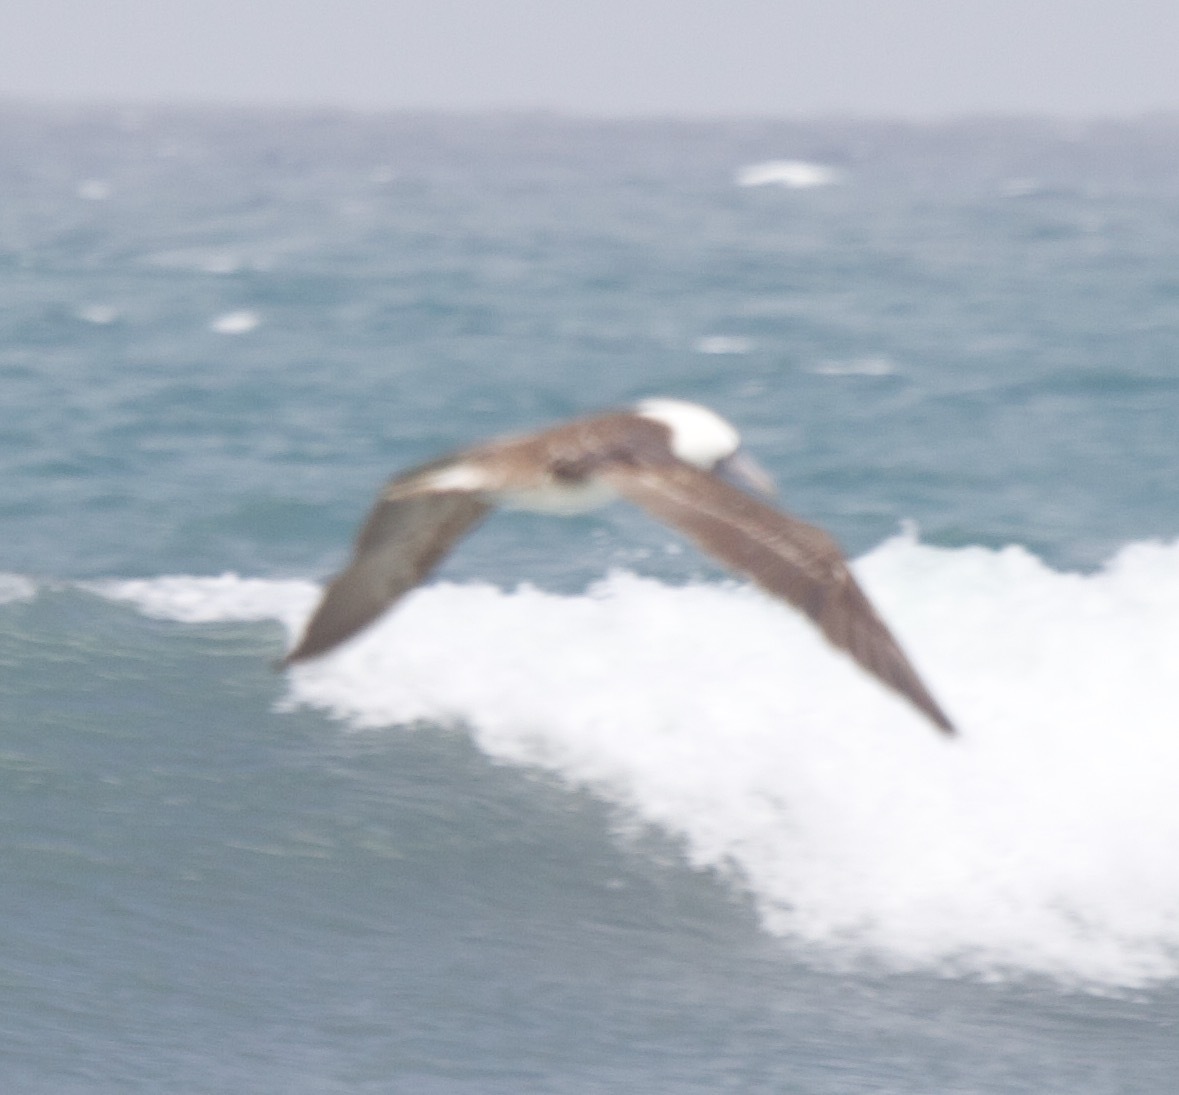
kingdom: Animalia
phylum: Chordata
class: Aves
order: Suliformes
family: Sulidae
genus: Sula
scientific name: Sula variegata
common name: Peruvian booby
